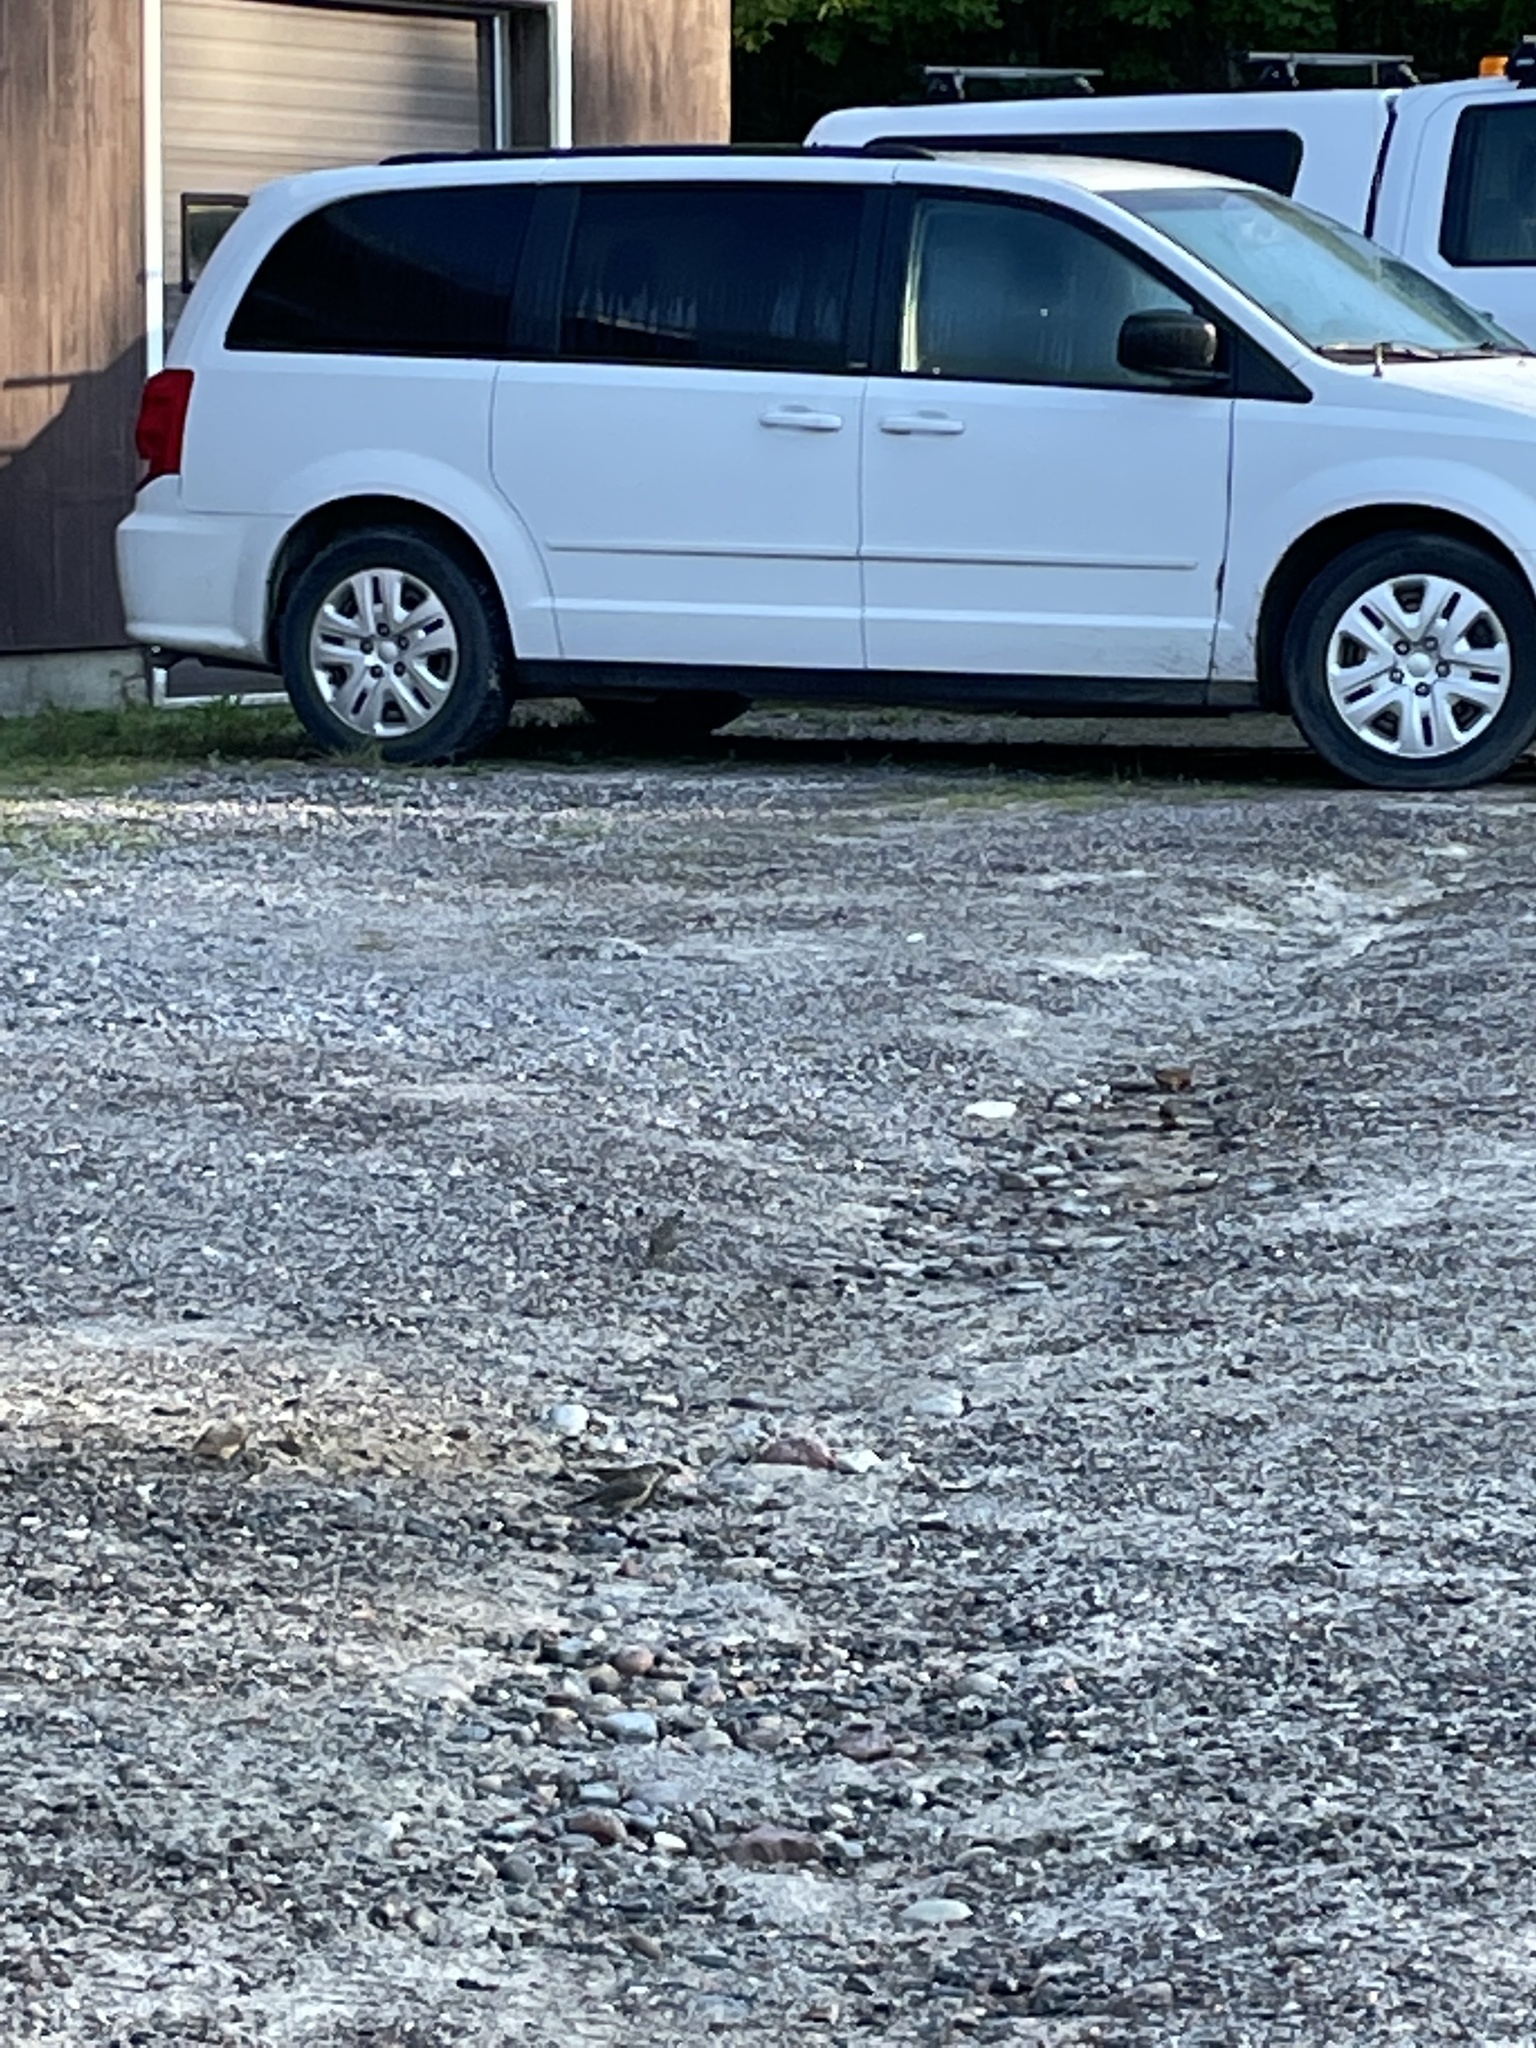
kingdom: Animalia
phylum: Chordata
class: Aves
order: Passeriformes
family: Fringillidae
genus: Loxia
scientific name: Loxia curvirostra
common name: Red crossbill
